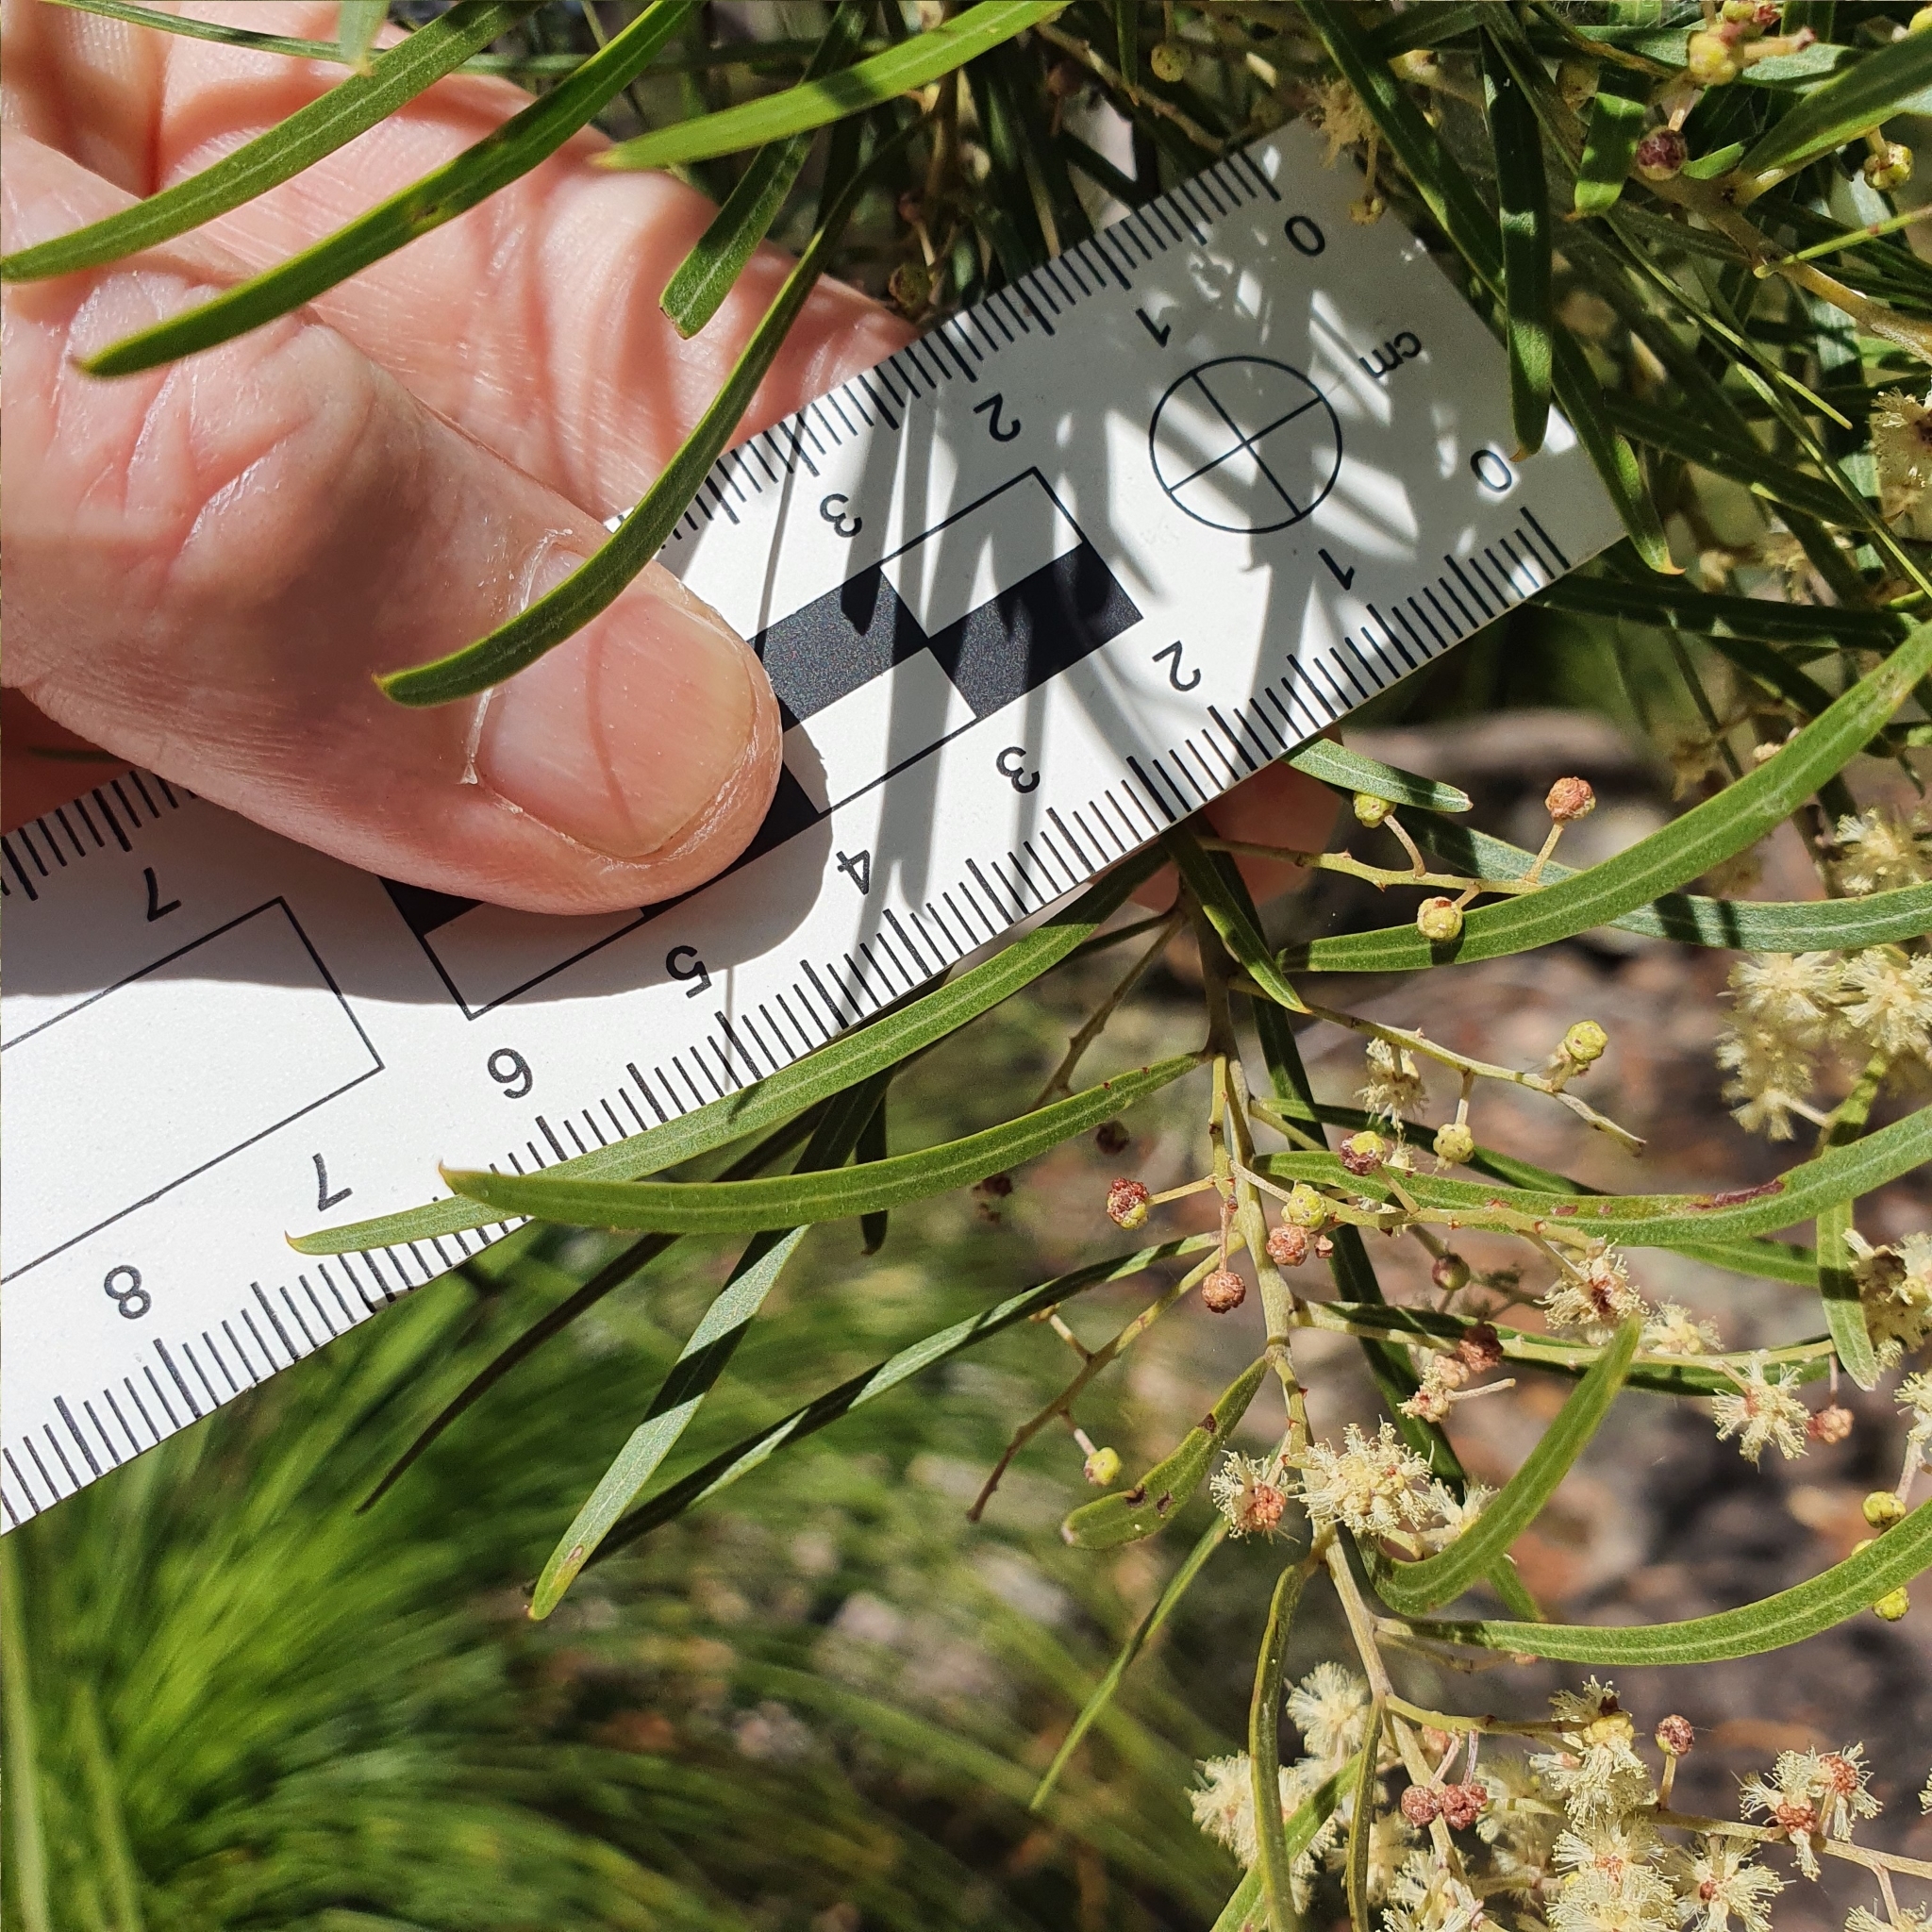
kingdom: Plantae
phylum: Tracheophyta
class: Magnoliopsida
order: Fabales
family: Fabaceae
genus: Acacia
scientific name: Acacia pubicosta
